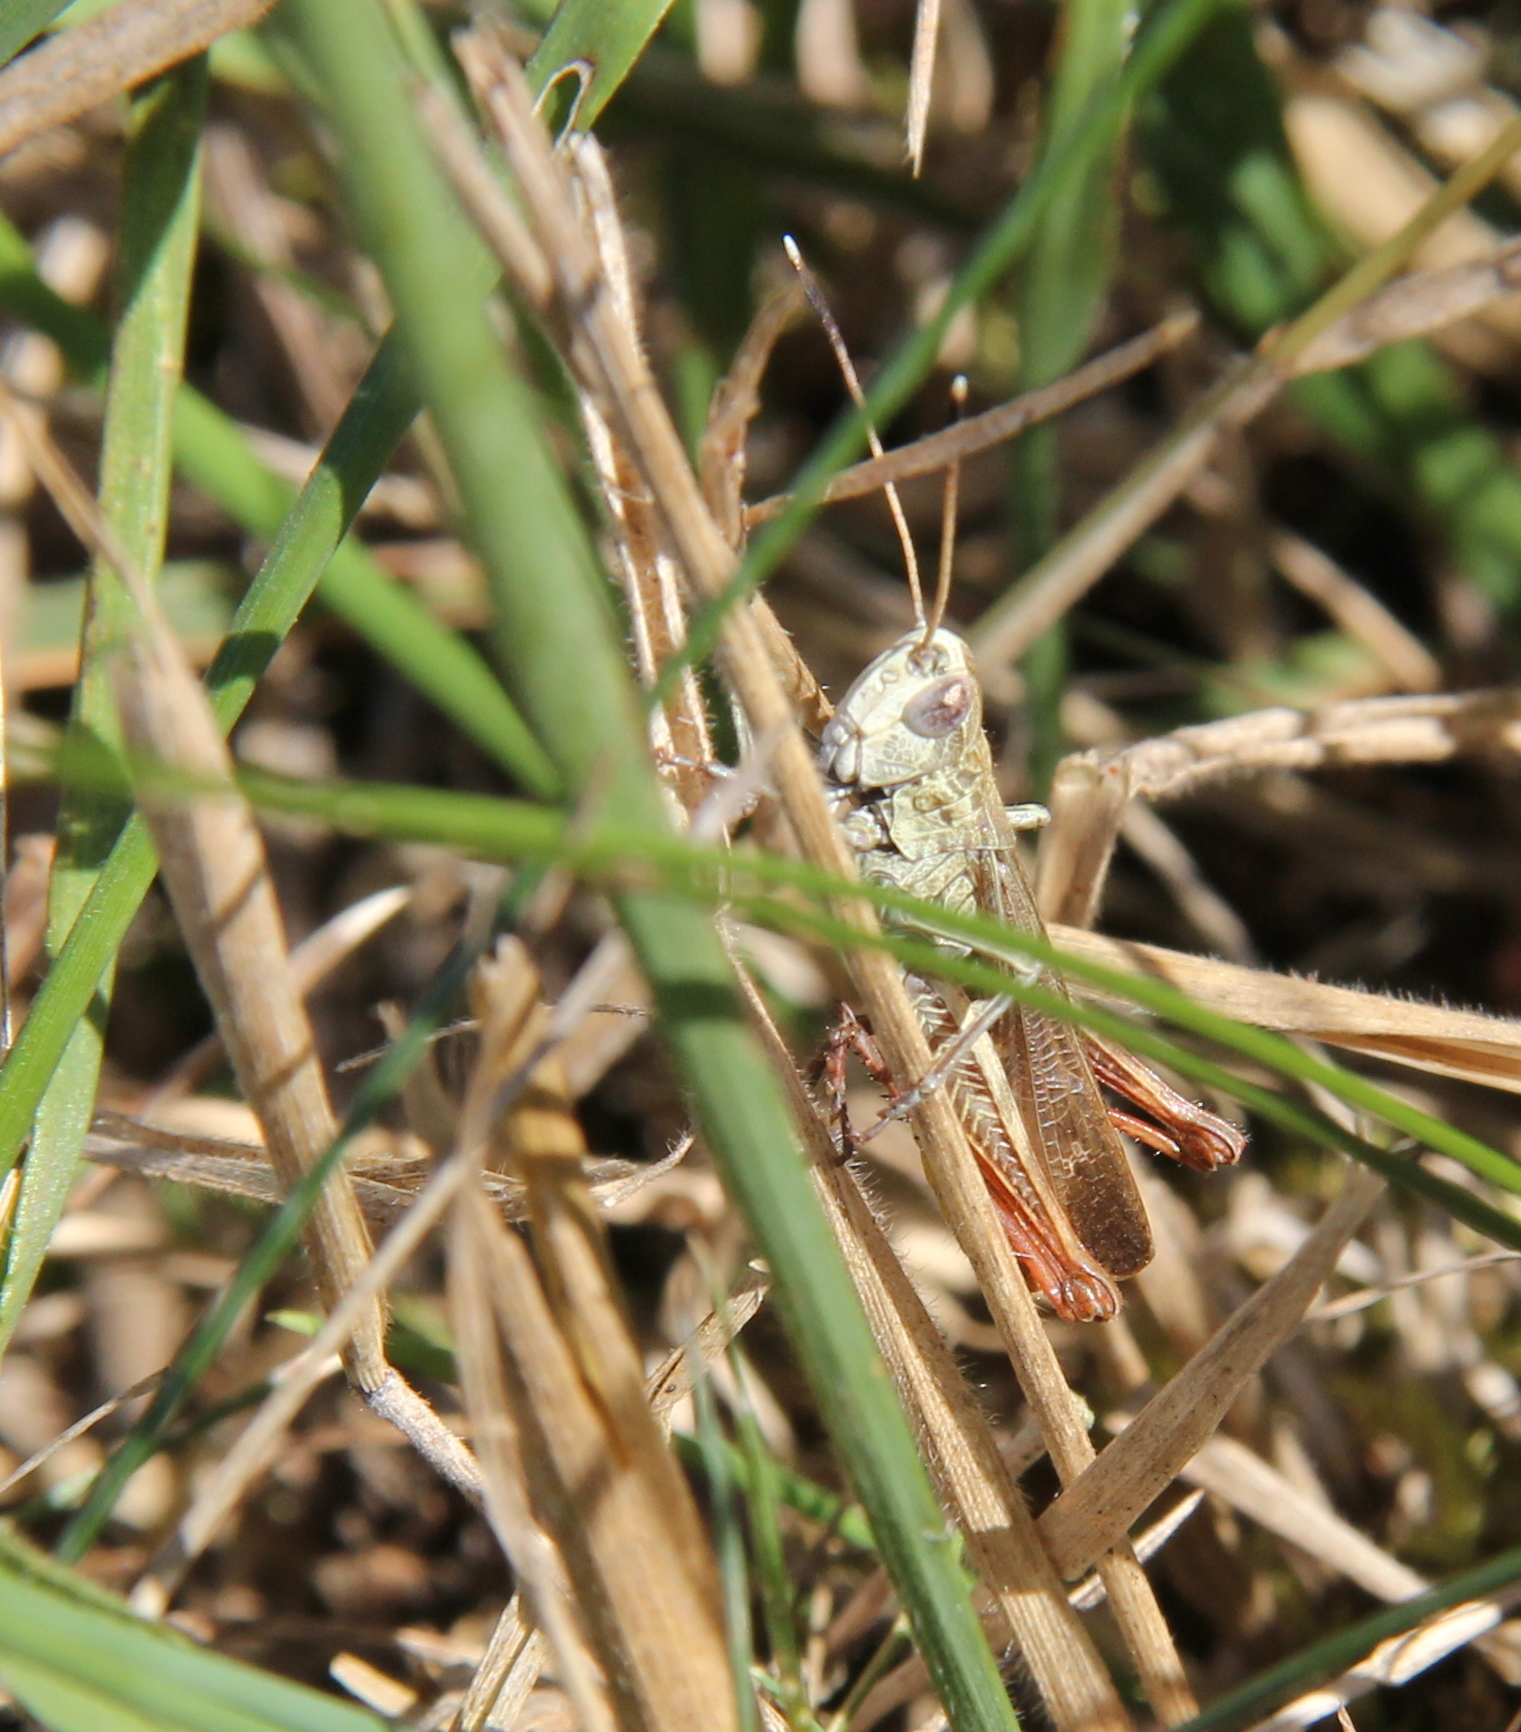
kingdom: Animalia
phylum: Arthropoda
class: Insecta
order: Orthoptera
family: Acrididae
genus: Gomphocerippus
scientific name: Gomphocerippus rufus
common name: Rufous grasshopper
